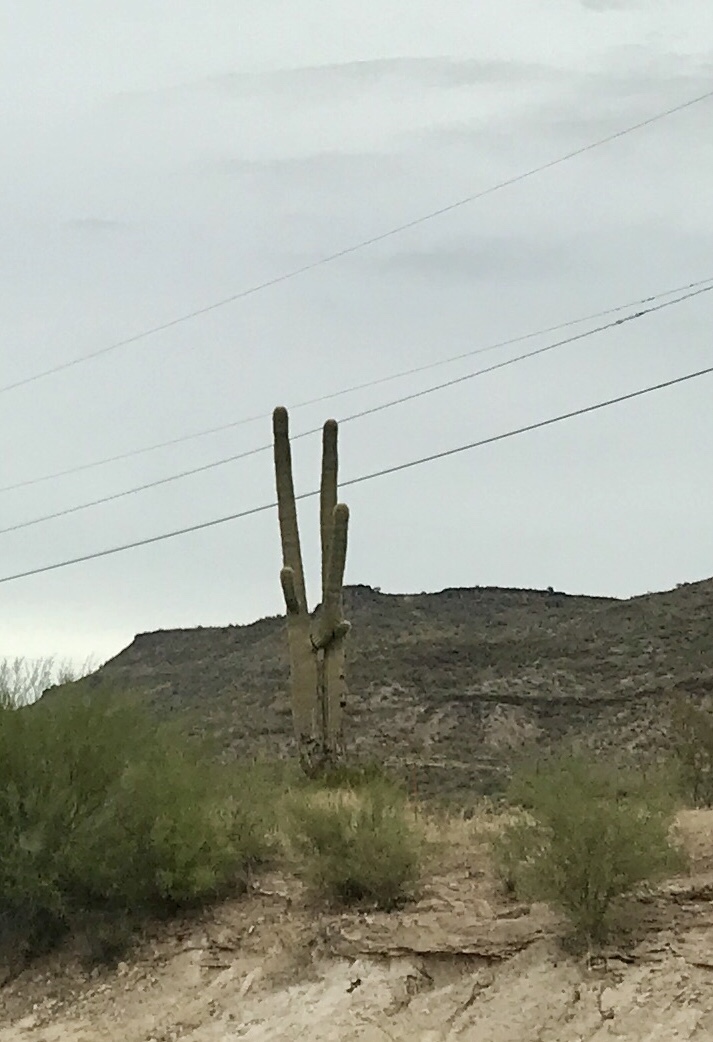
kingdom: Plantae
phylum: Tracheophyta
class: Magnoliopsida
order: Caryophyllales
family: Cactaceae
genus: Carnegiea
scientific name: Carnegiea gigantea
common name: Saguaro
